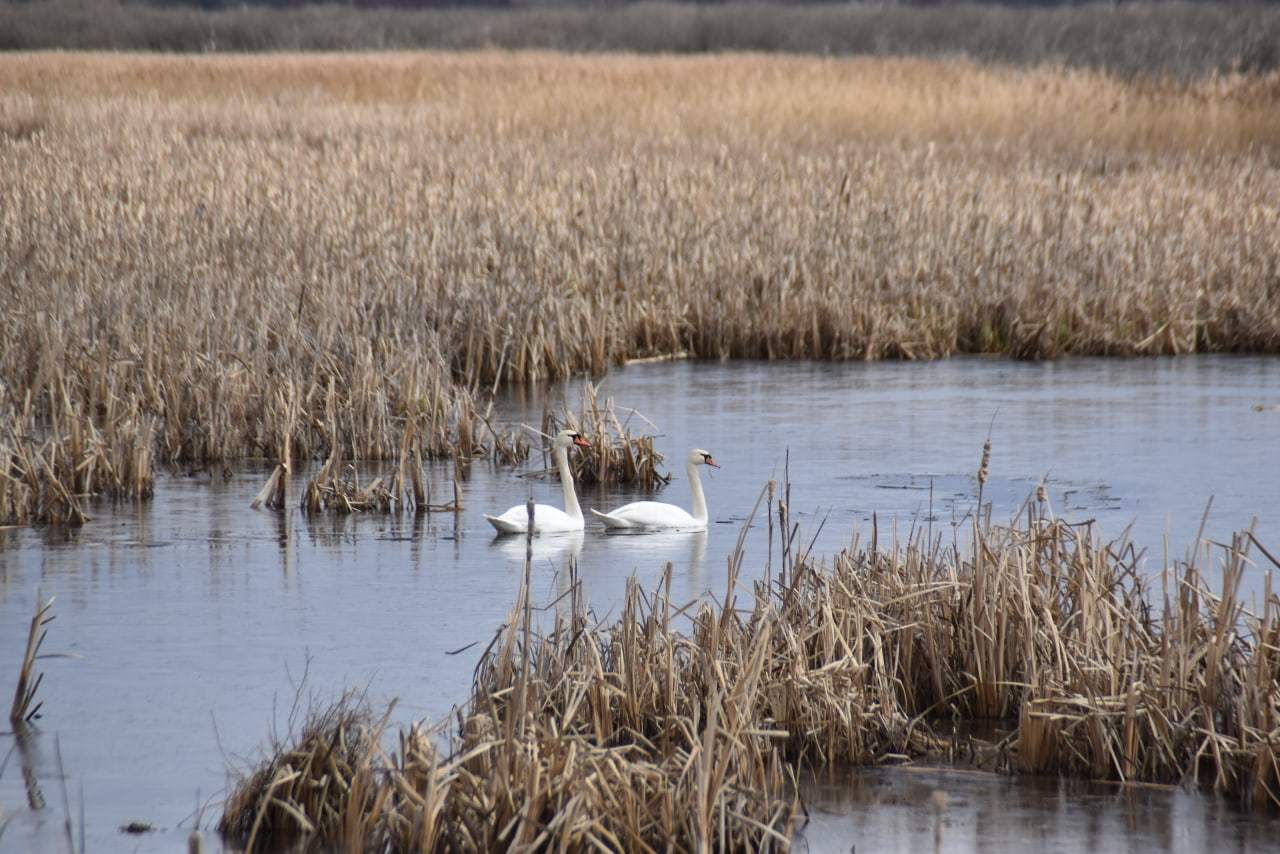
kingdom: Animalia
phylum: Chordata
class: Aves
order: Anseriformes
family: Anatidae
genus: Cygnus
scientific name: Cygnus olor
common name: Mute swan
